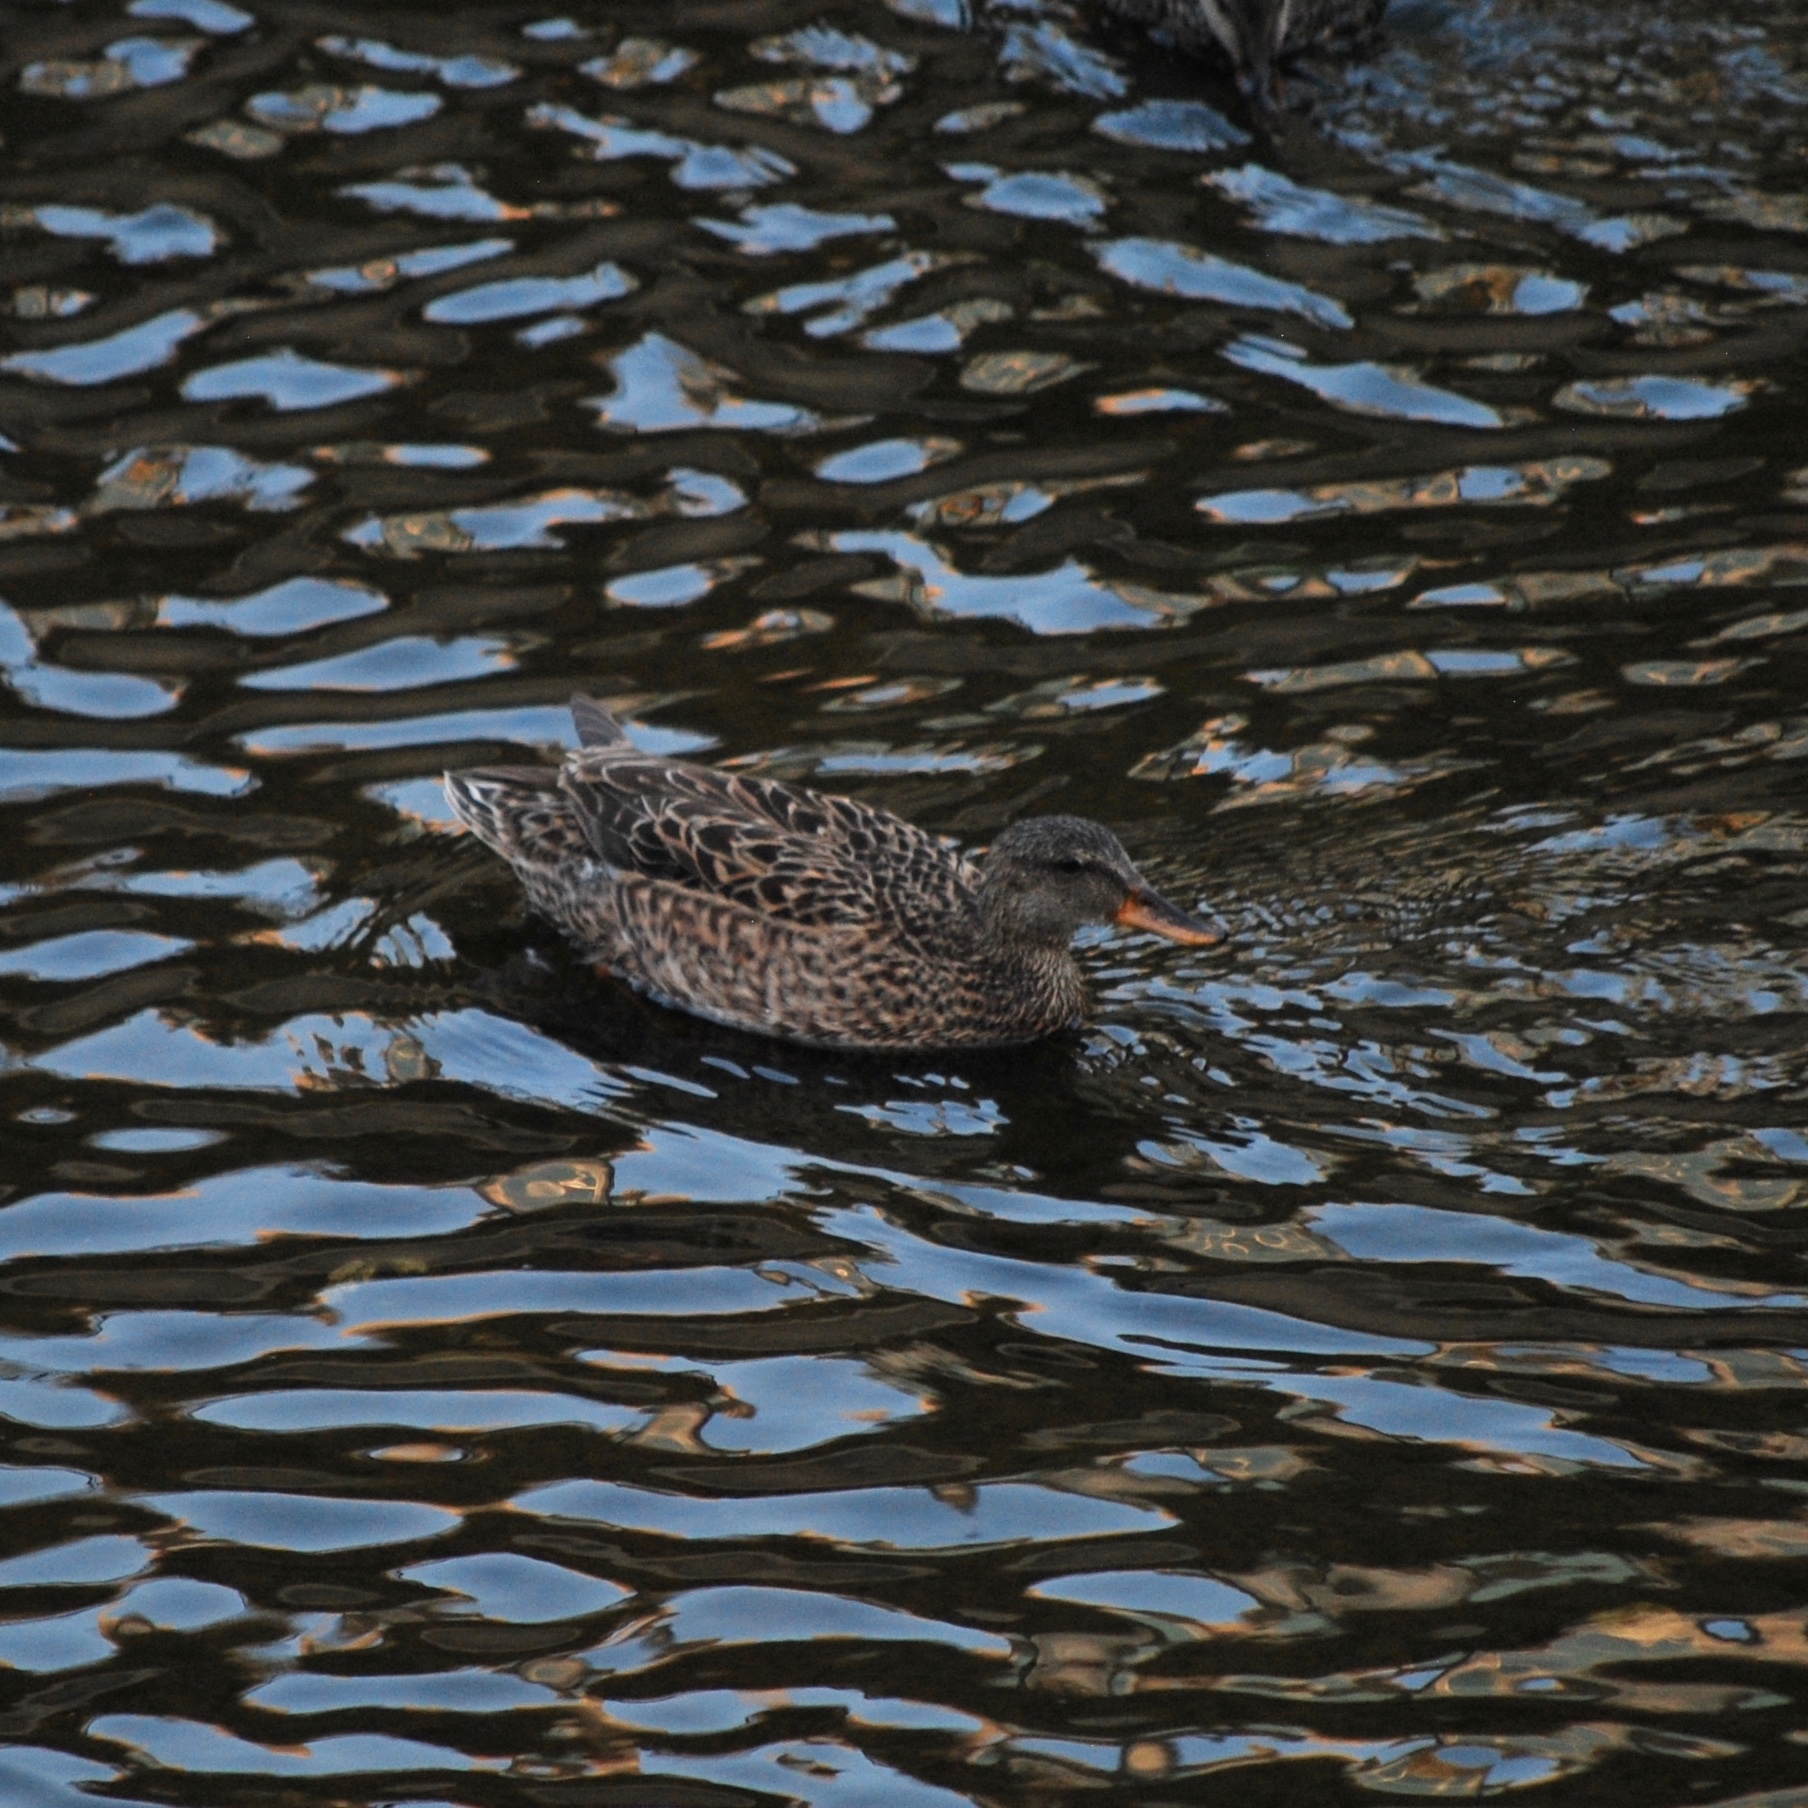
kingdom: Animalia
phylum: Chordata
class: Aves
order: Anseriformes
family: Anatidae
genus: Mareca
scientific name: Mareca strepera
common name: Gadwall
